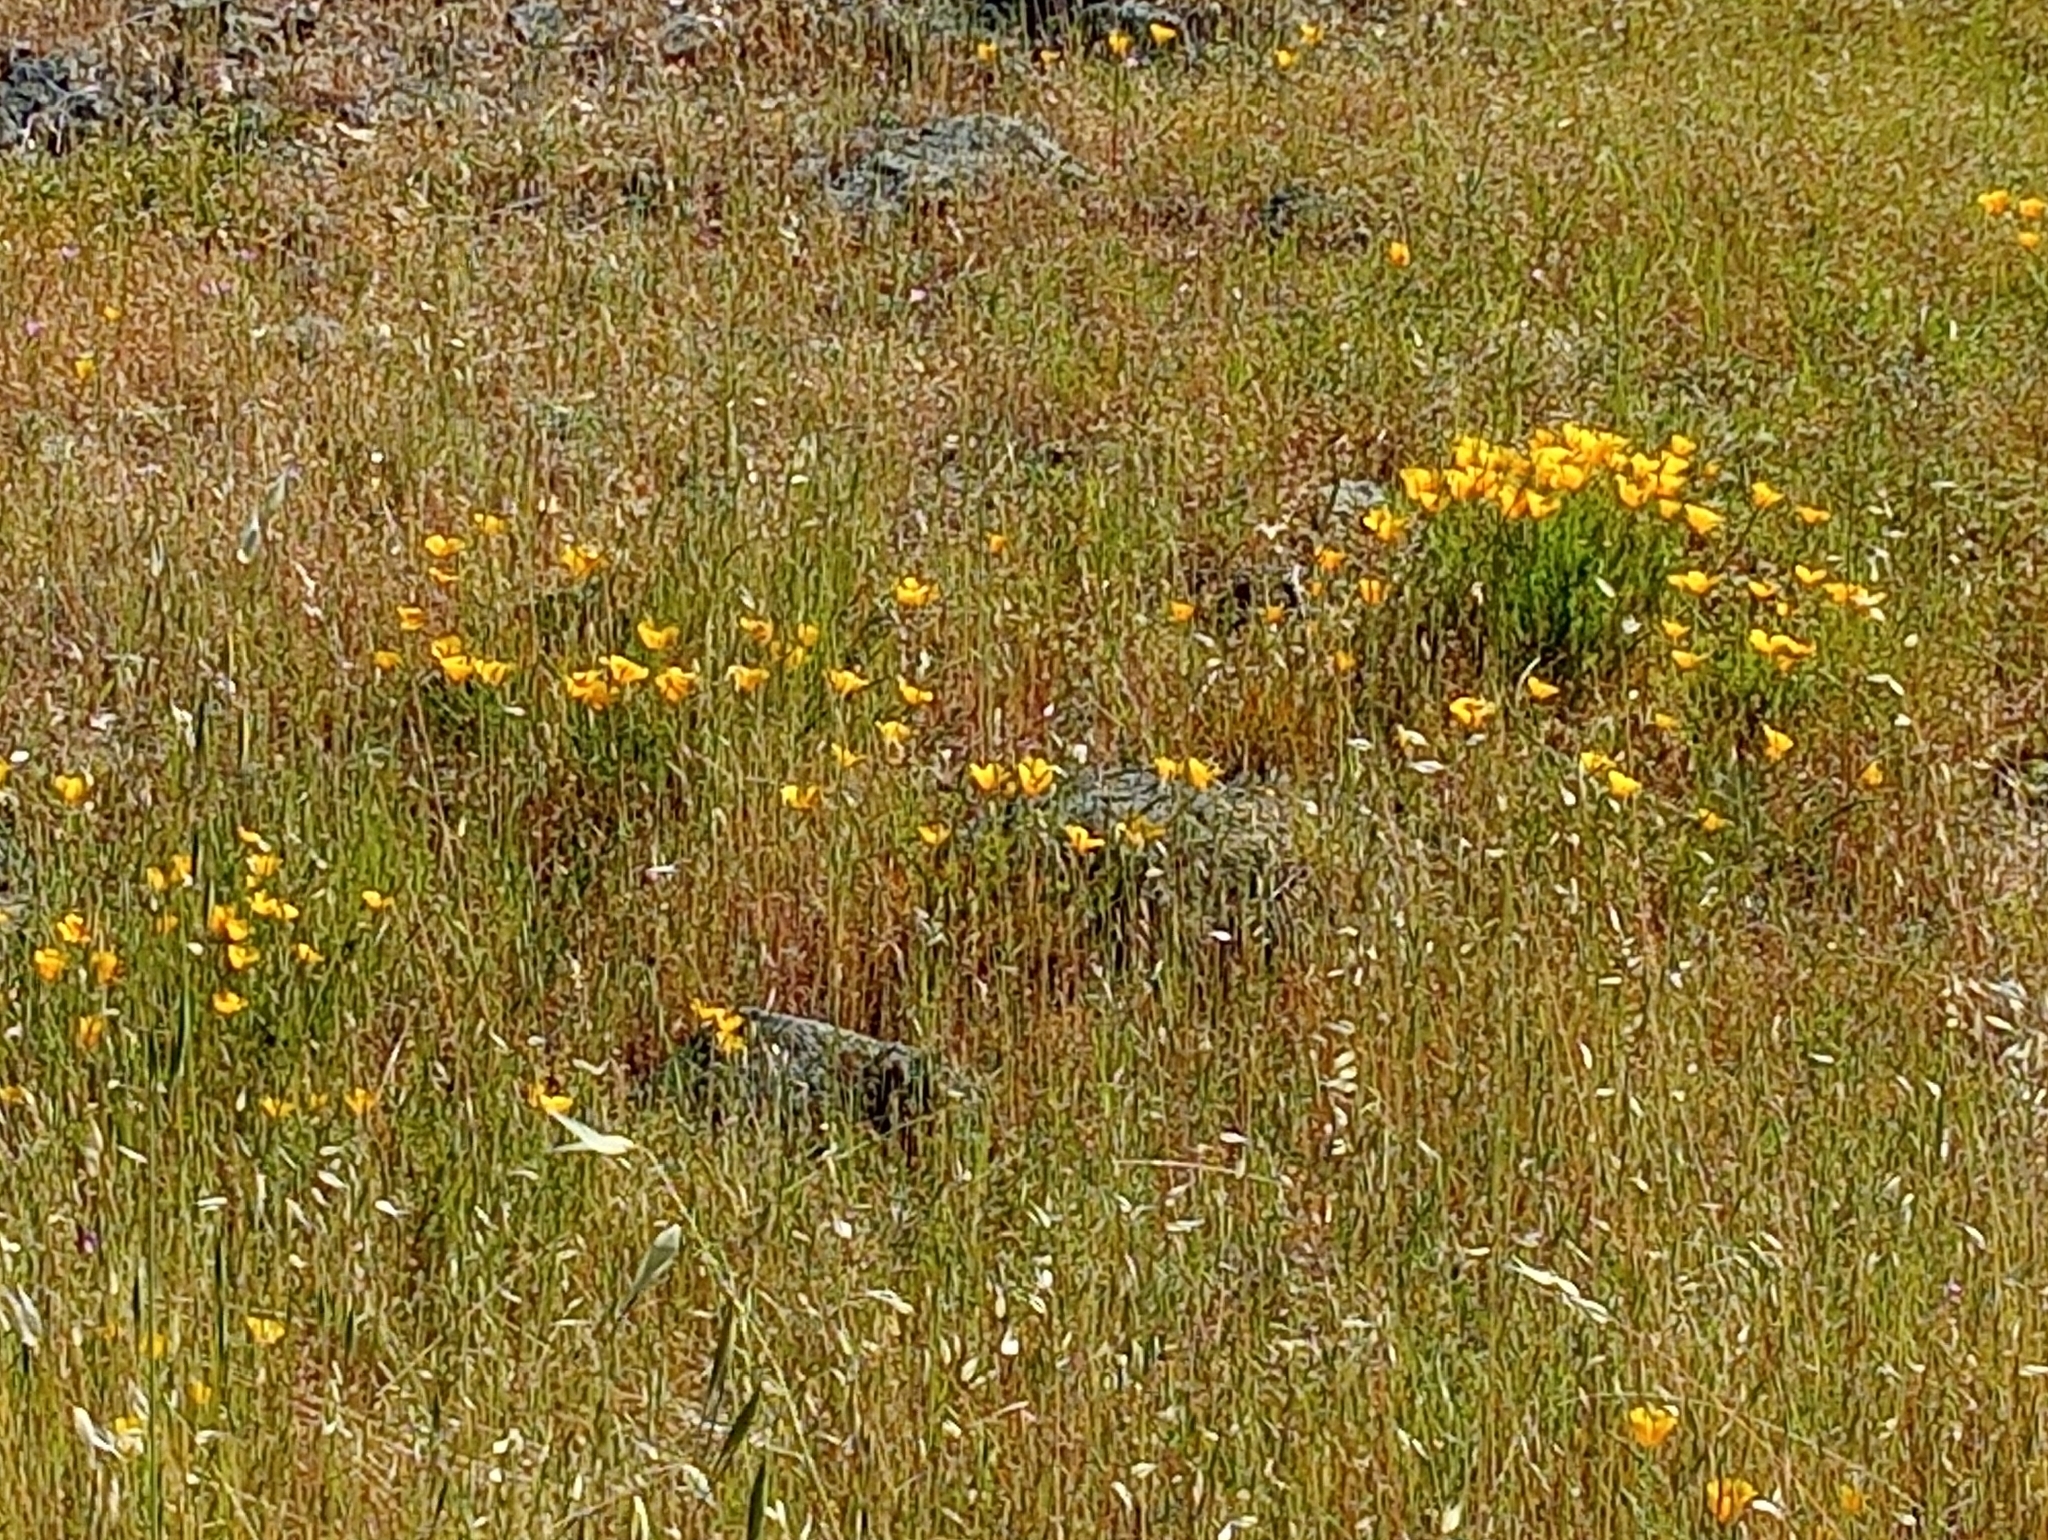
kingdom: Plantae
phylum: Tracheophyta
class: Magnoliopsida
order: Ranunculales
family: Papaveraceae
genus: Eschscholzia
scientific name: Eschscholzia californica
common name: California poppy
